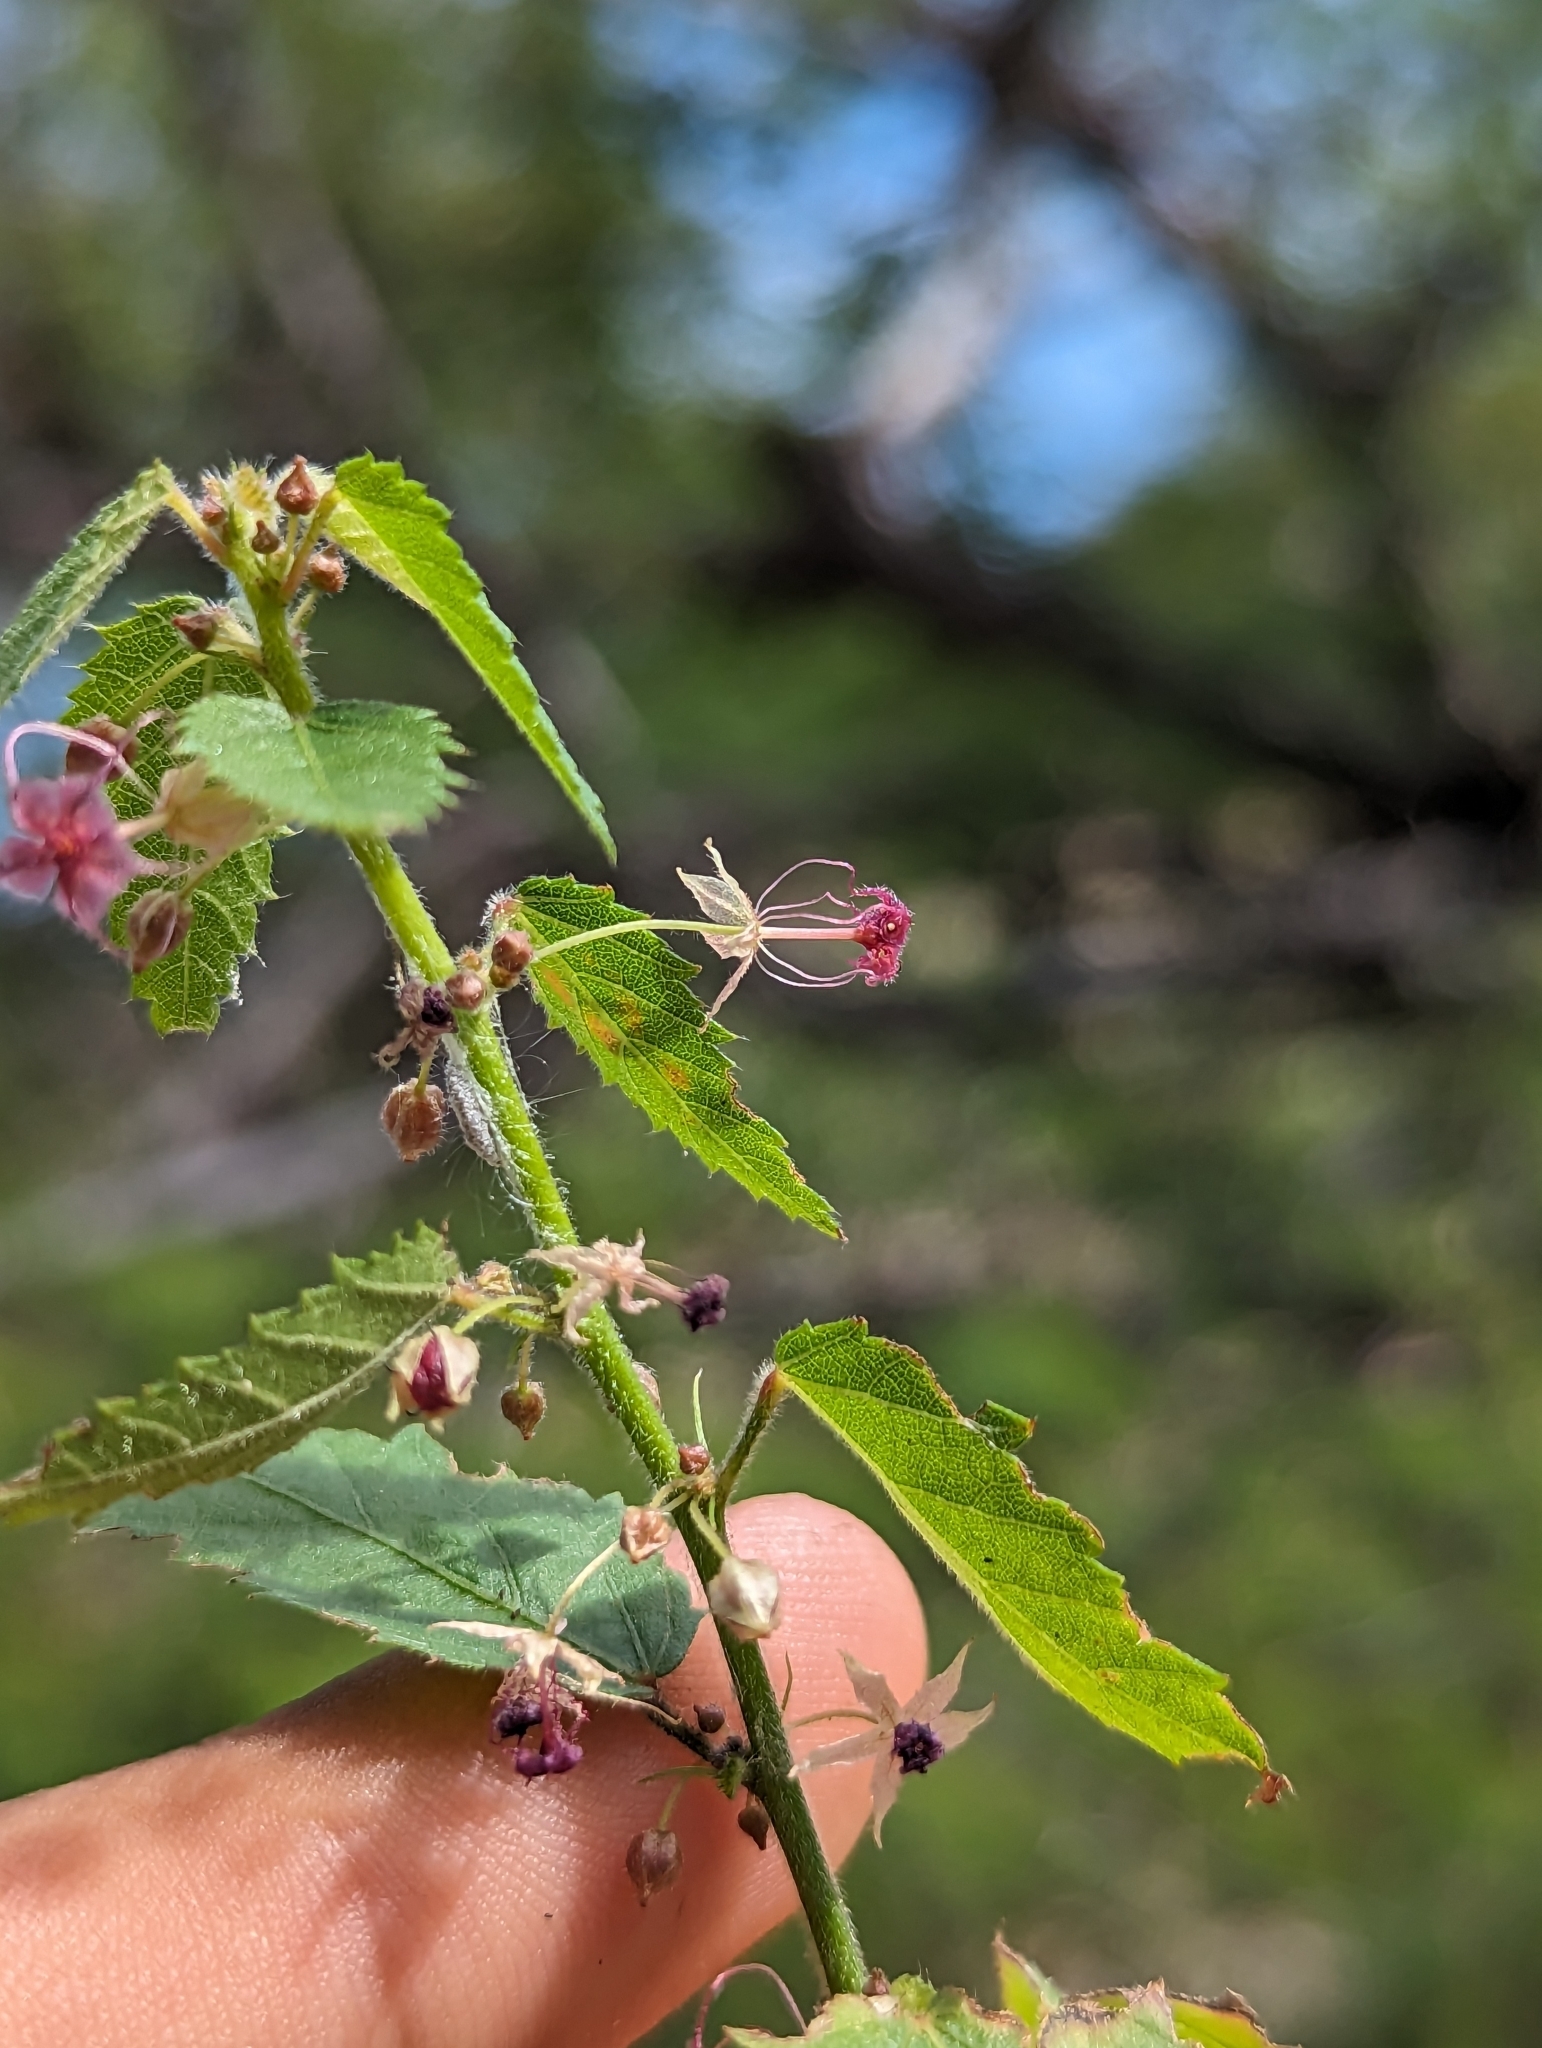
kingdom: Plantae
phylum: Tracheophyta
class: Magnoliopsida
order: Malvales
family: Malvaceae
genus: Ayenia
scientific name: Ayenia peninsularis
